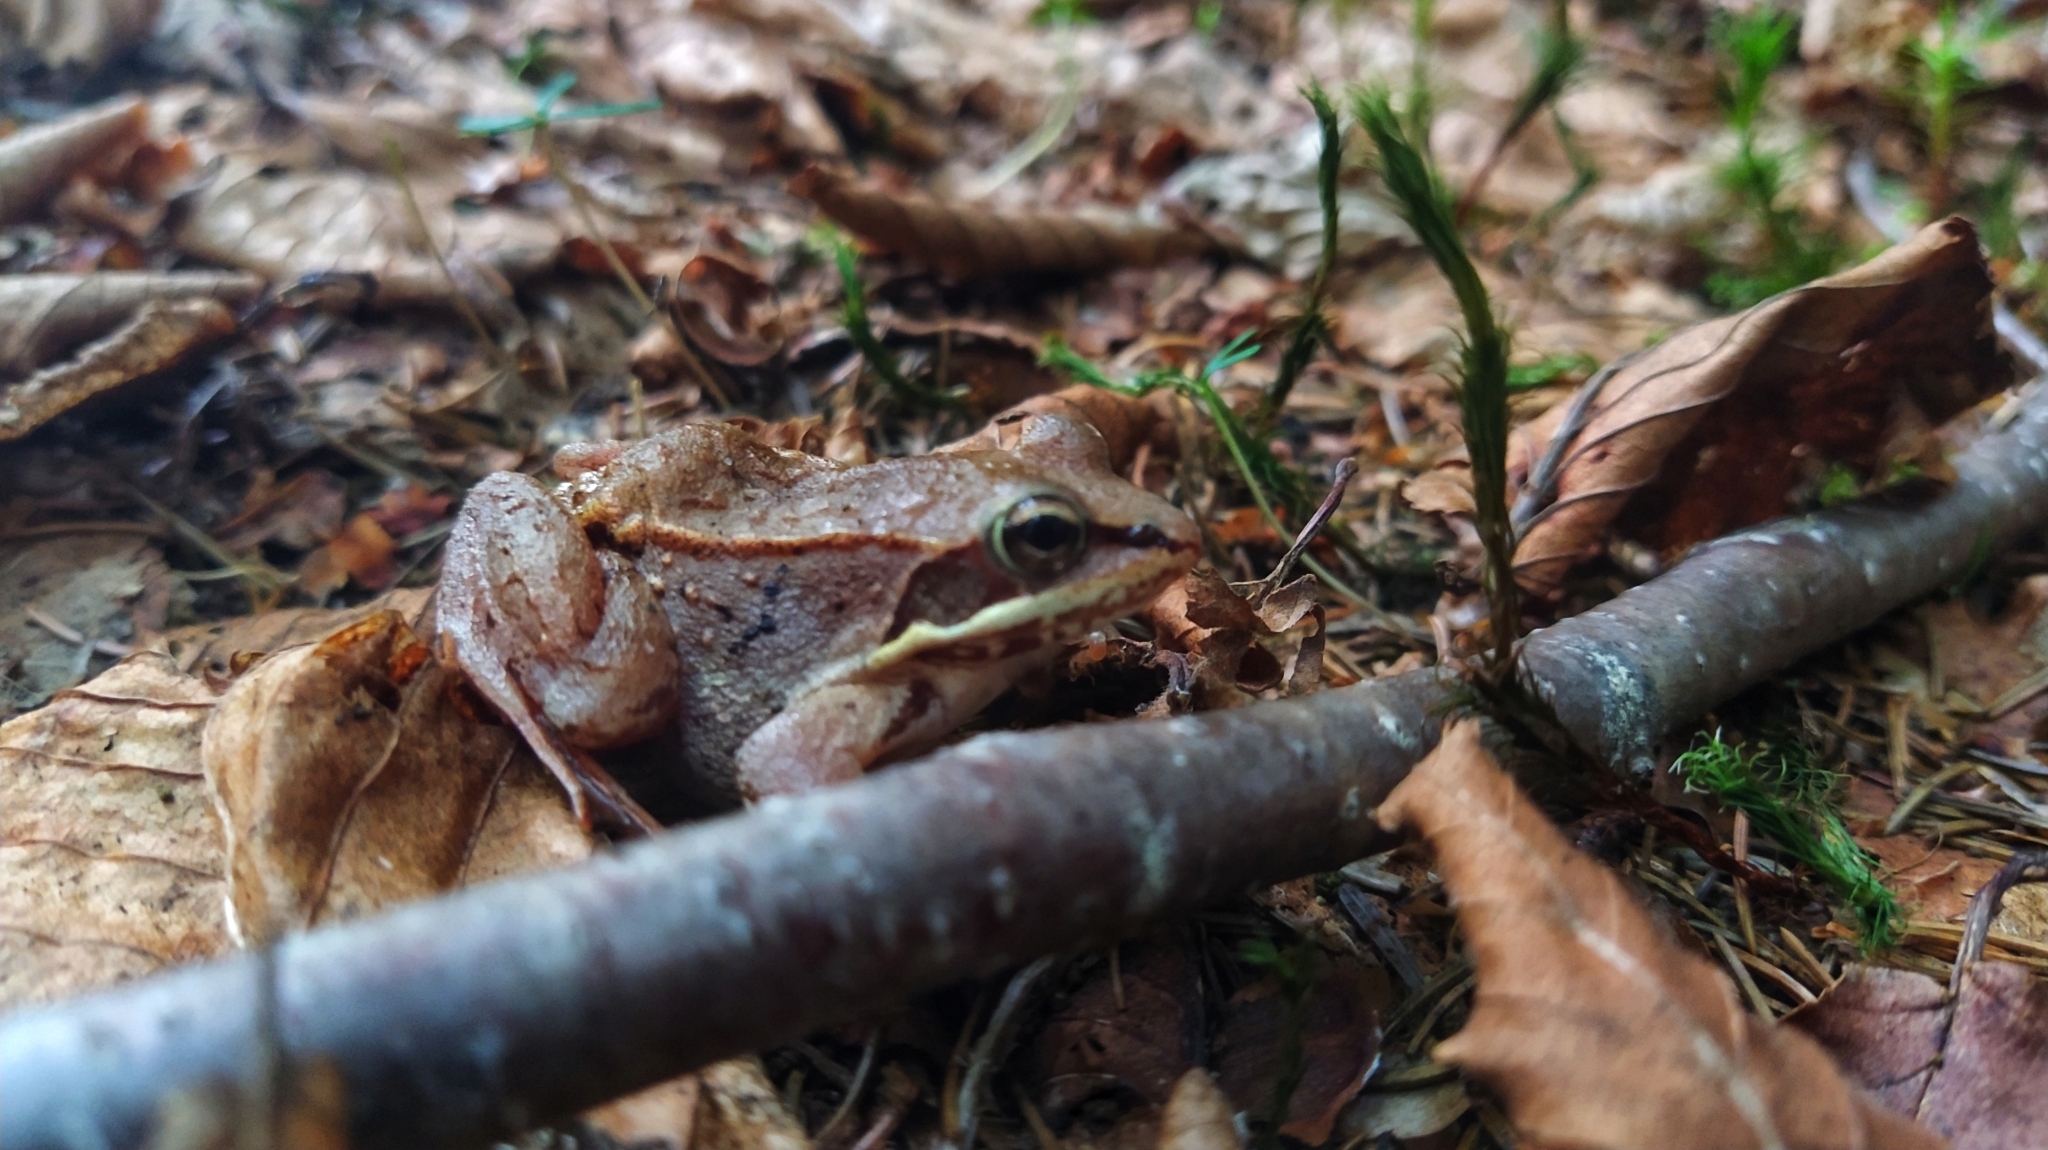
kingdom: Animalia
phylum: Chordata
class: Amphibia
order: Anura
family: Ranidae
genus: Lithobates
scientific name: Lithobates sylvaticus
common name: Wood frog
